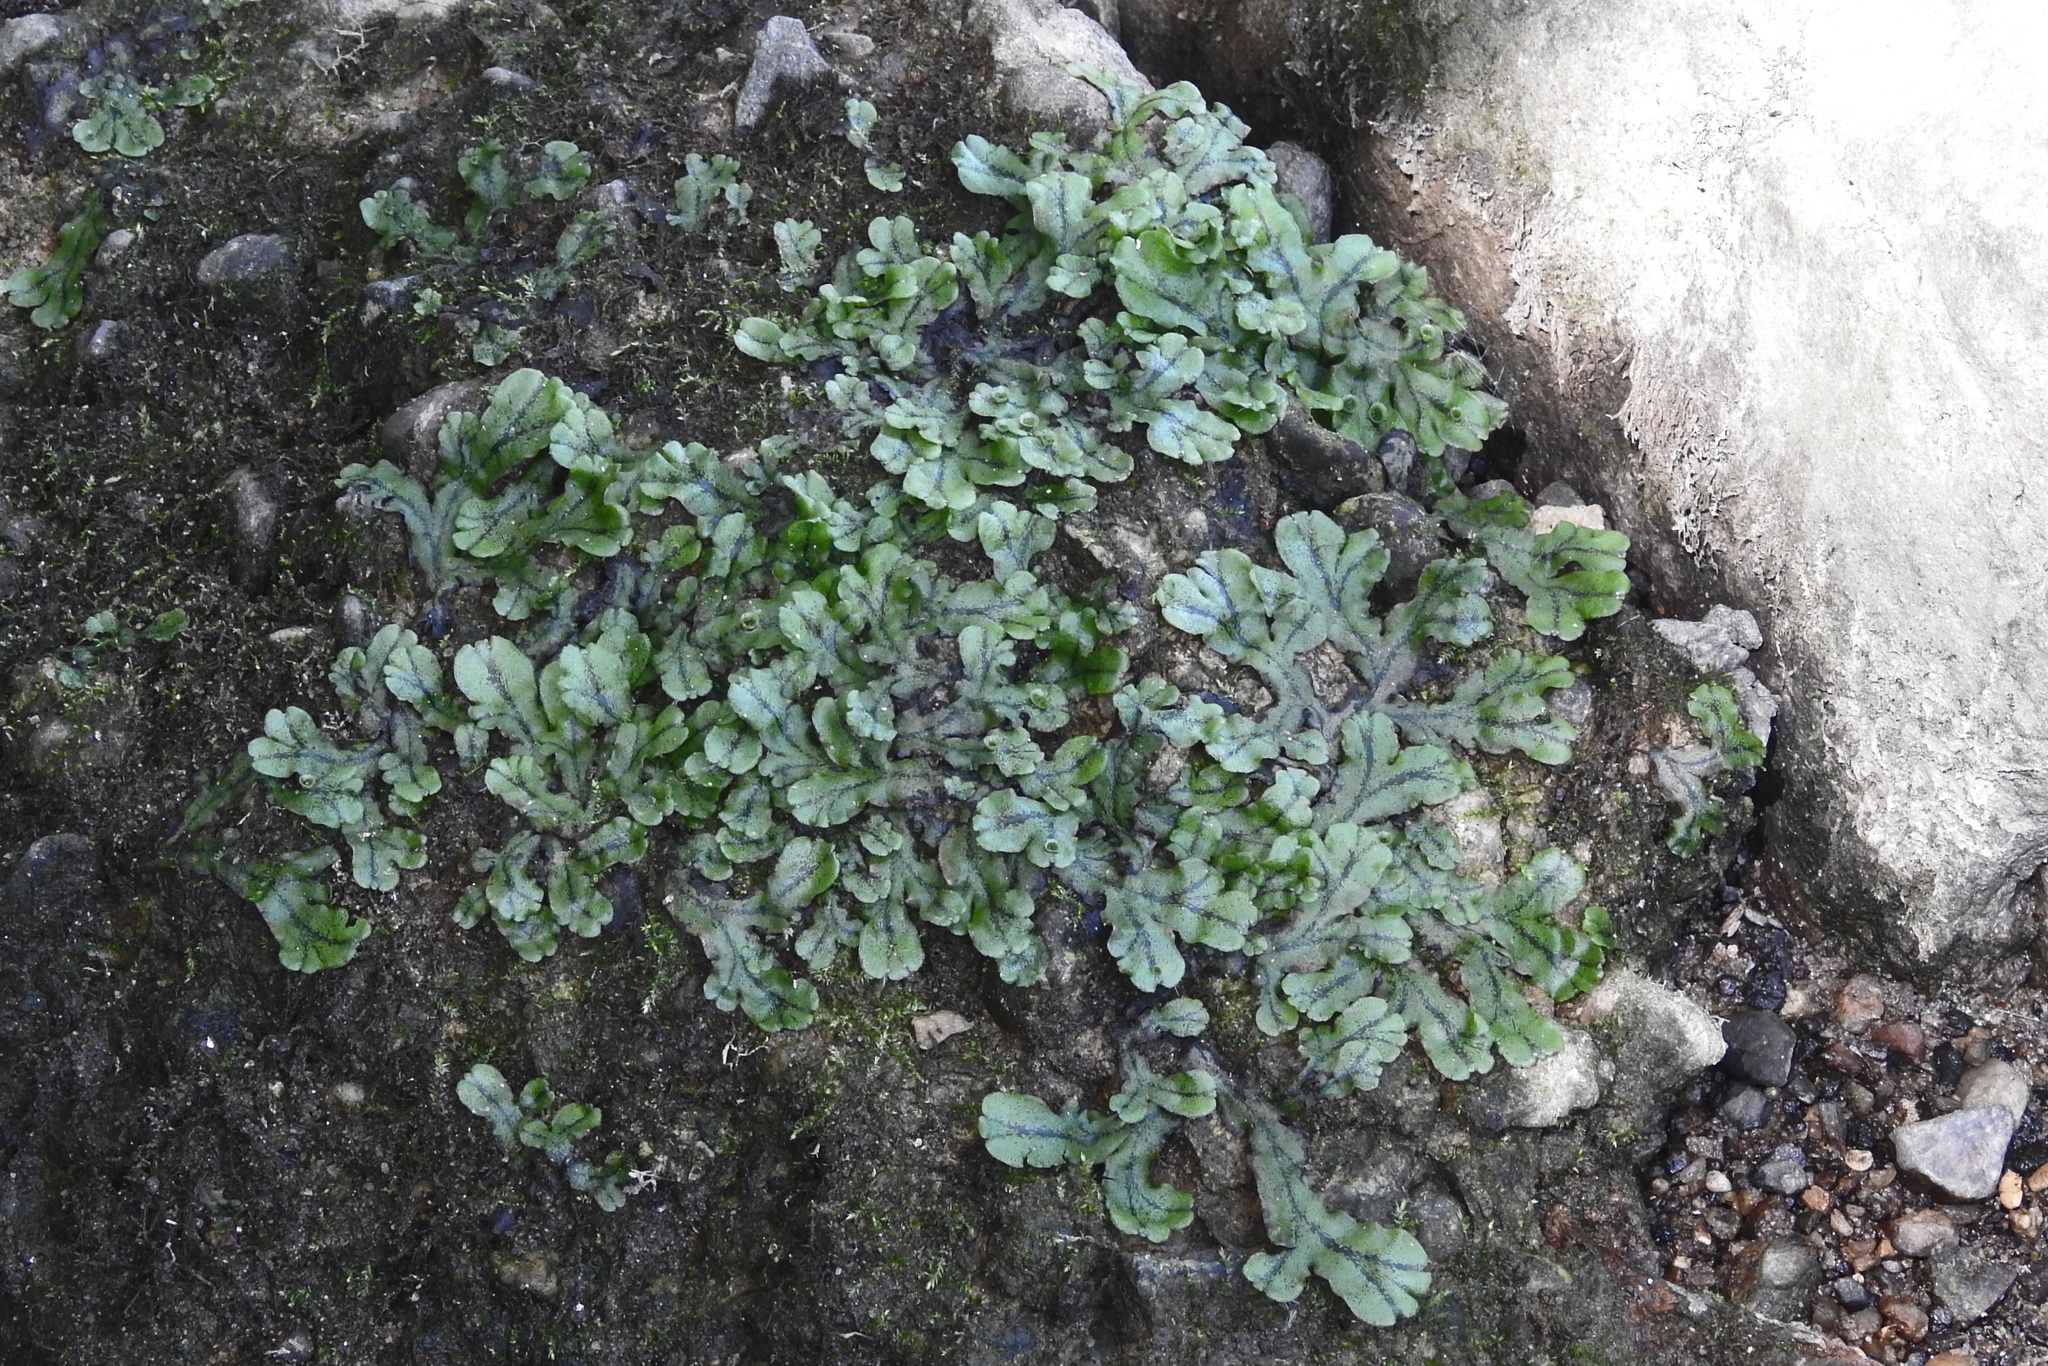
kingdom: Plantae
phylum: Marchantiophyta
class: Marchantiopsida
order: Marchantiales
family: Marchantiaceae
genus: Marchantia
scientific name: Marchantia polymorpha
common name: Common liverwort
